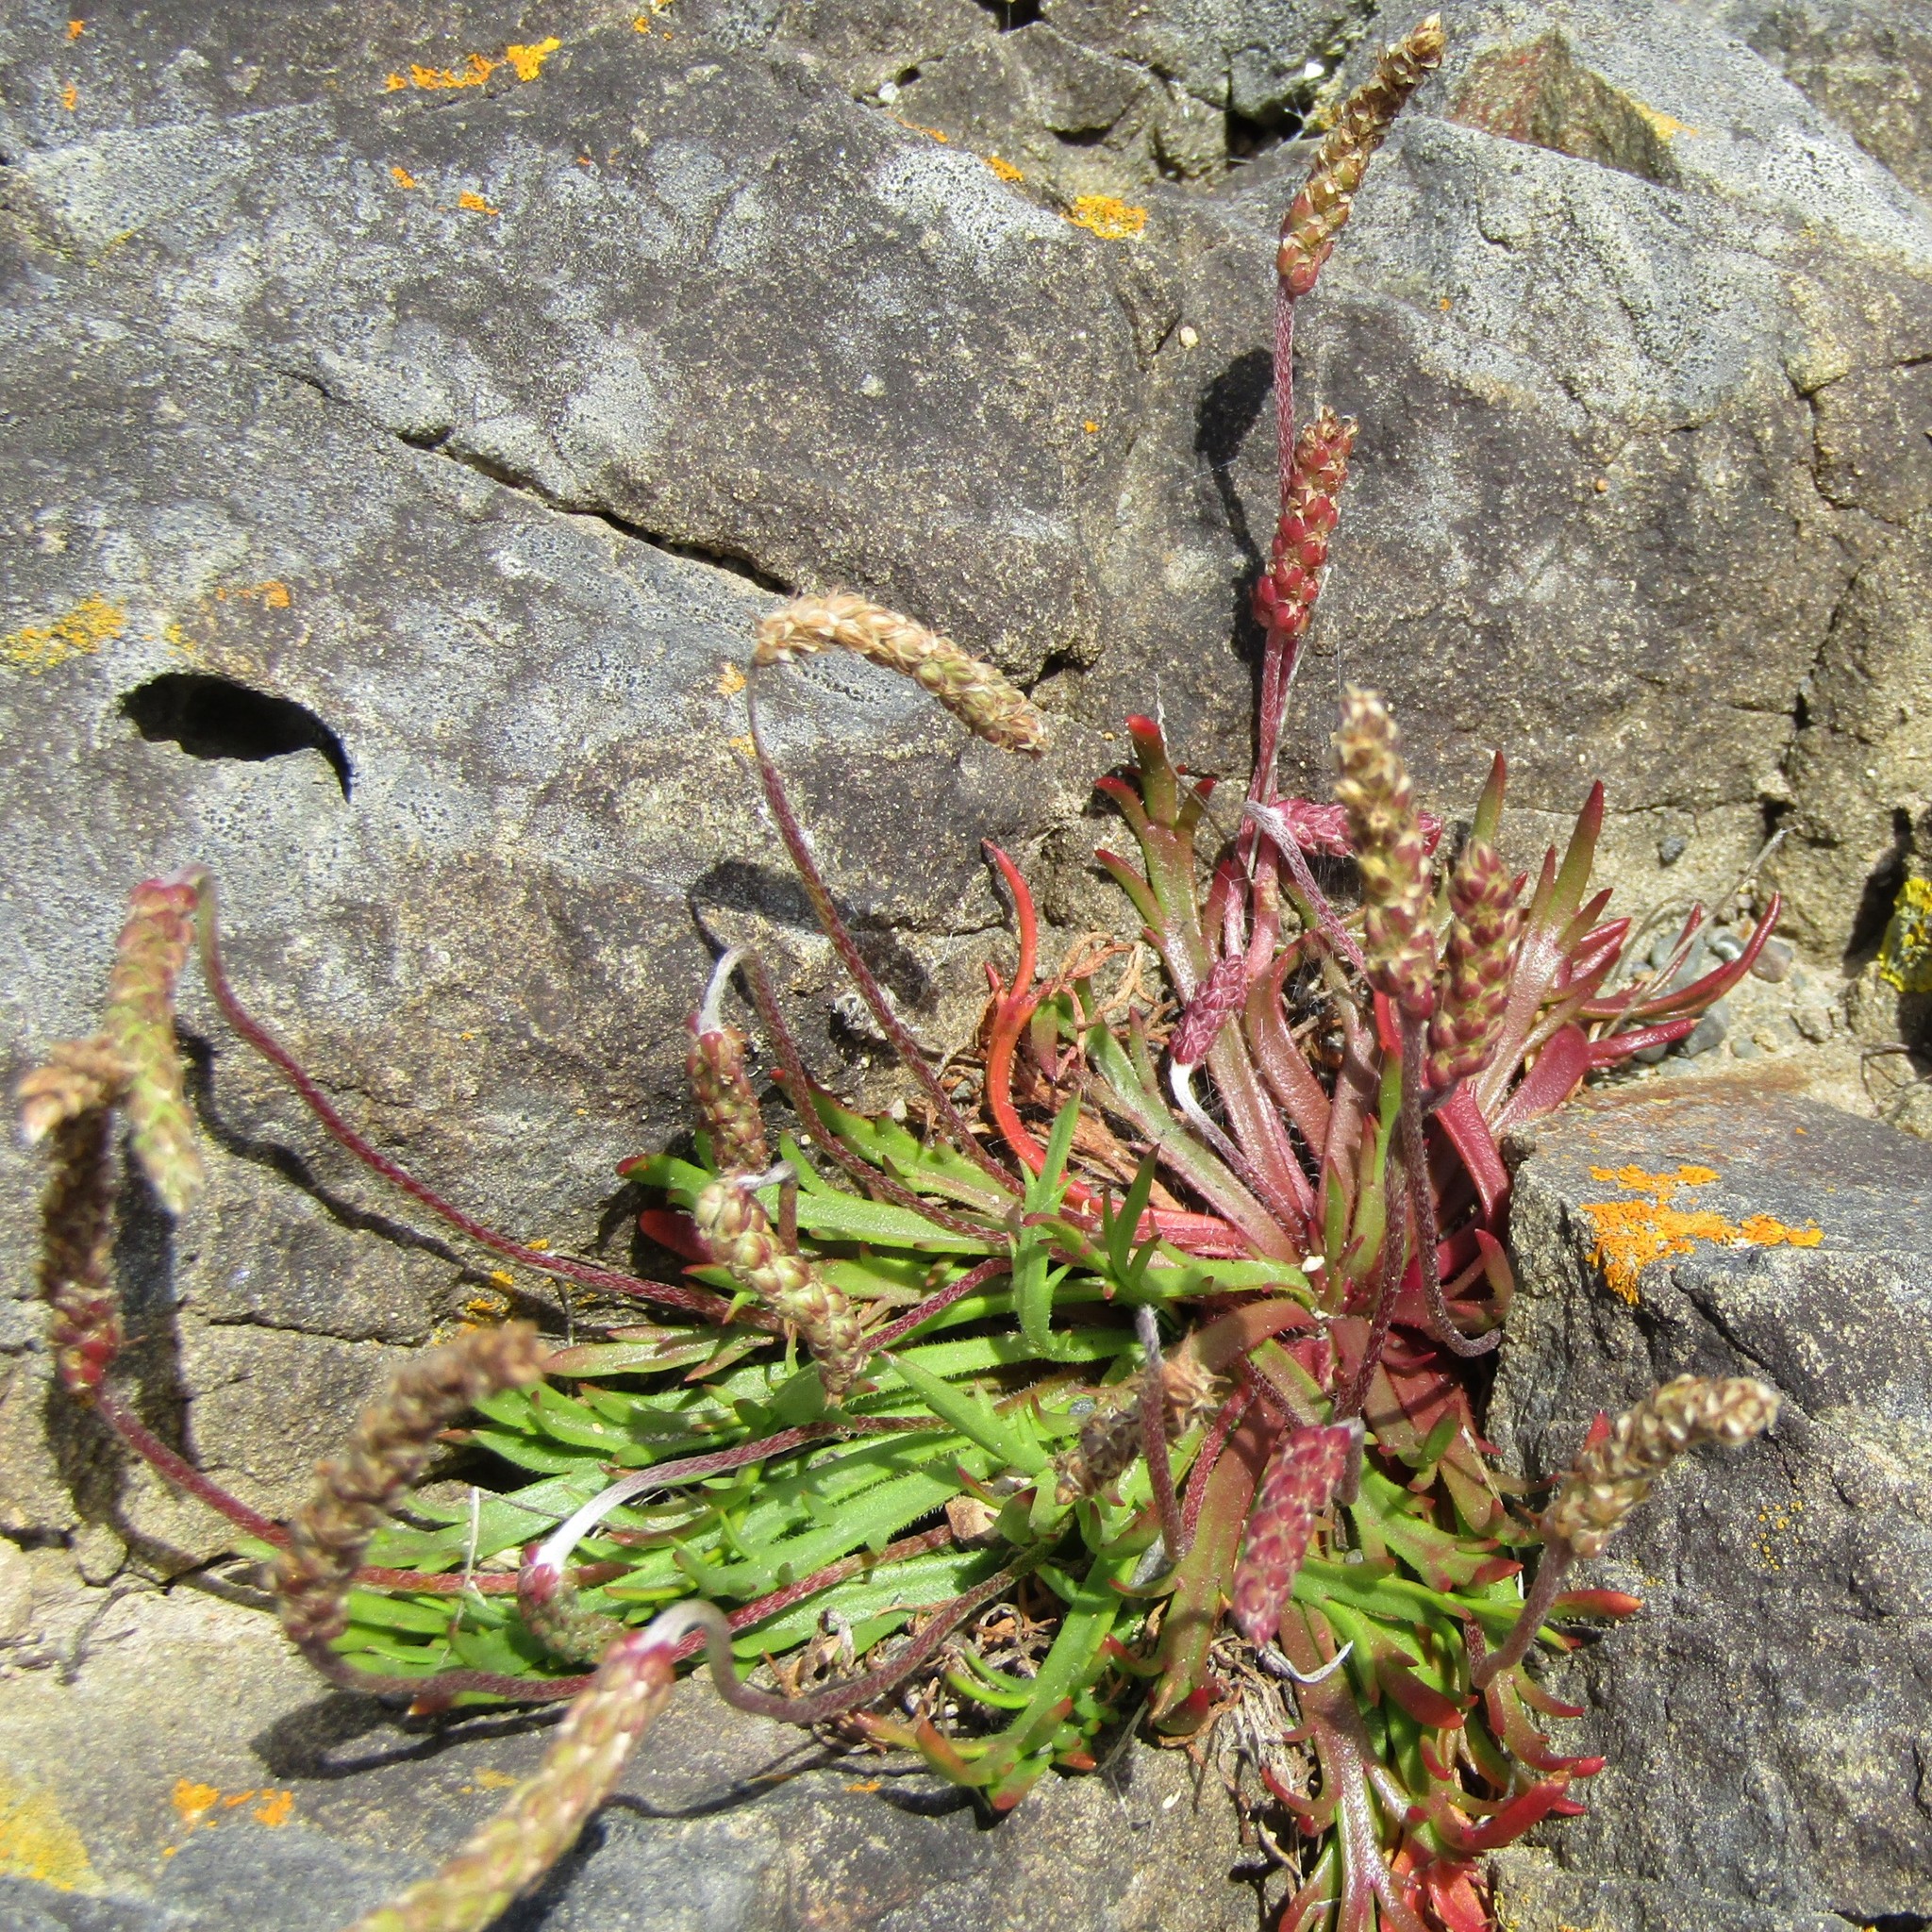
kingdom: Plantae
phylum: Tracheophyta
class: Magnoliopsida
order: Lamiales
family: Plantaginaceae
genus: Plantago
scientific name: Plantago coronopus
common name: Buck's-horn plantain
